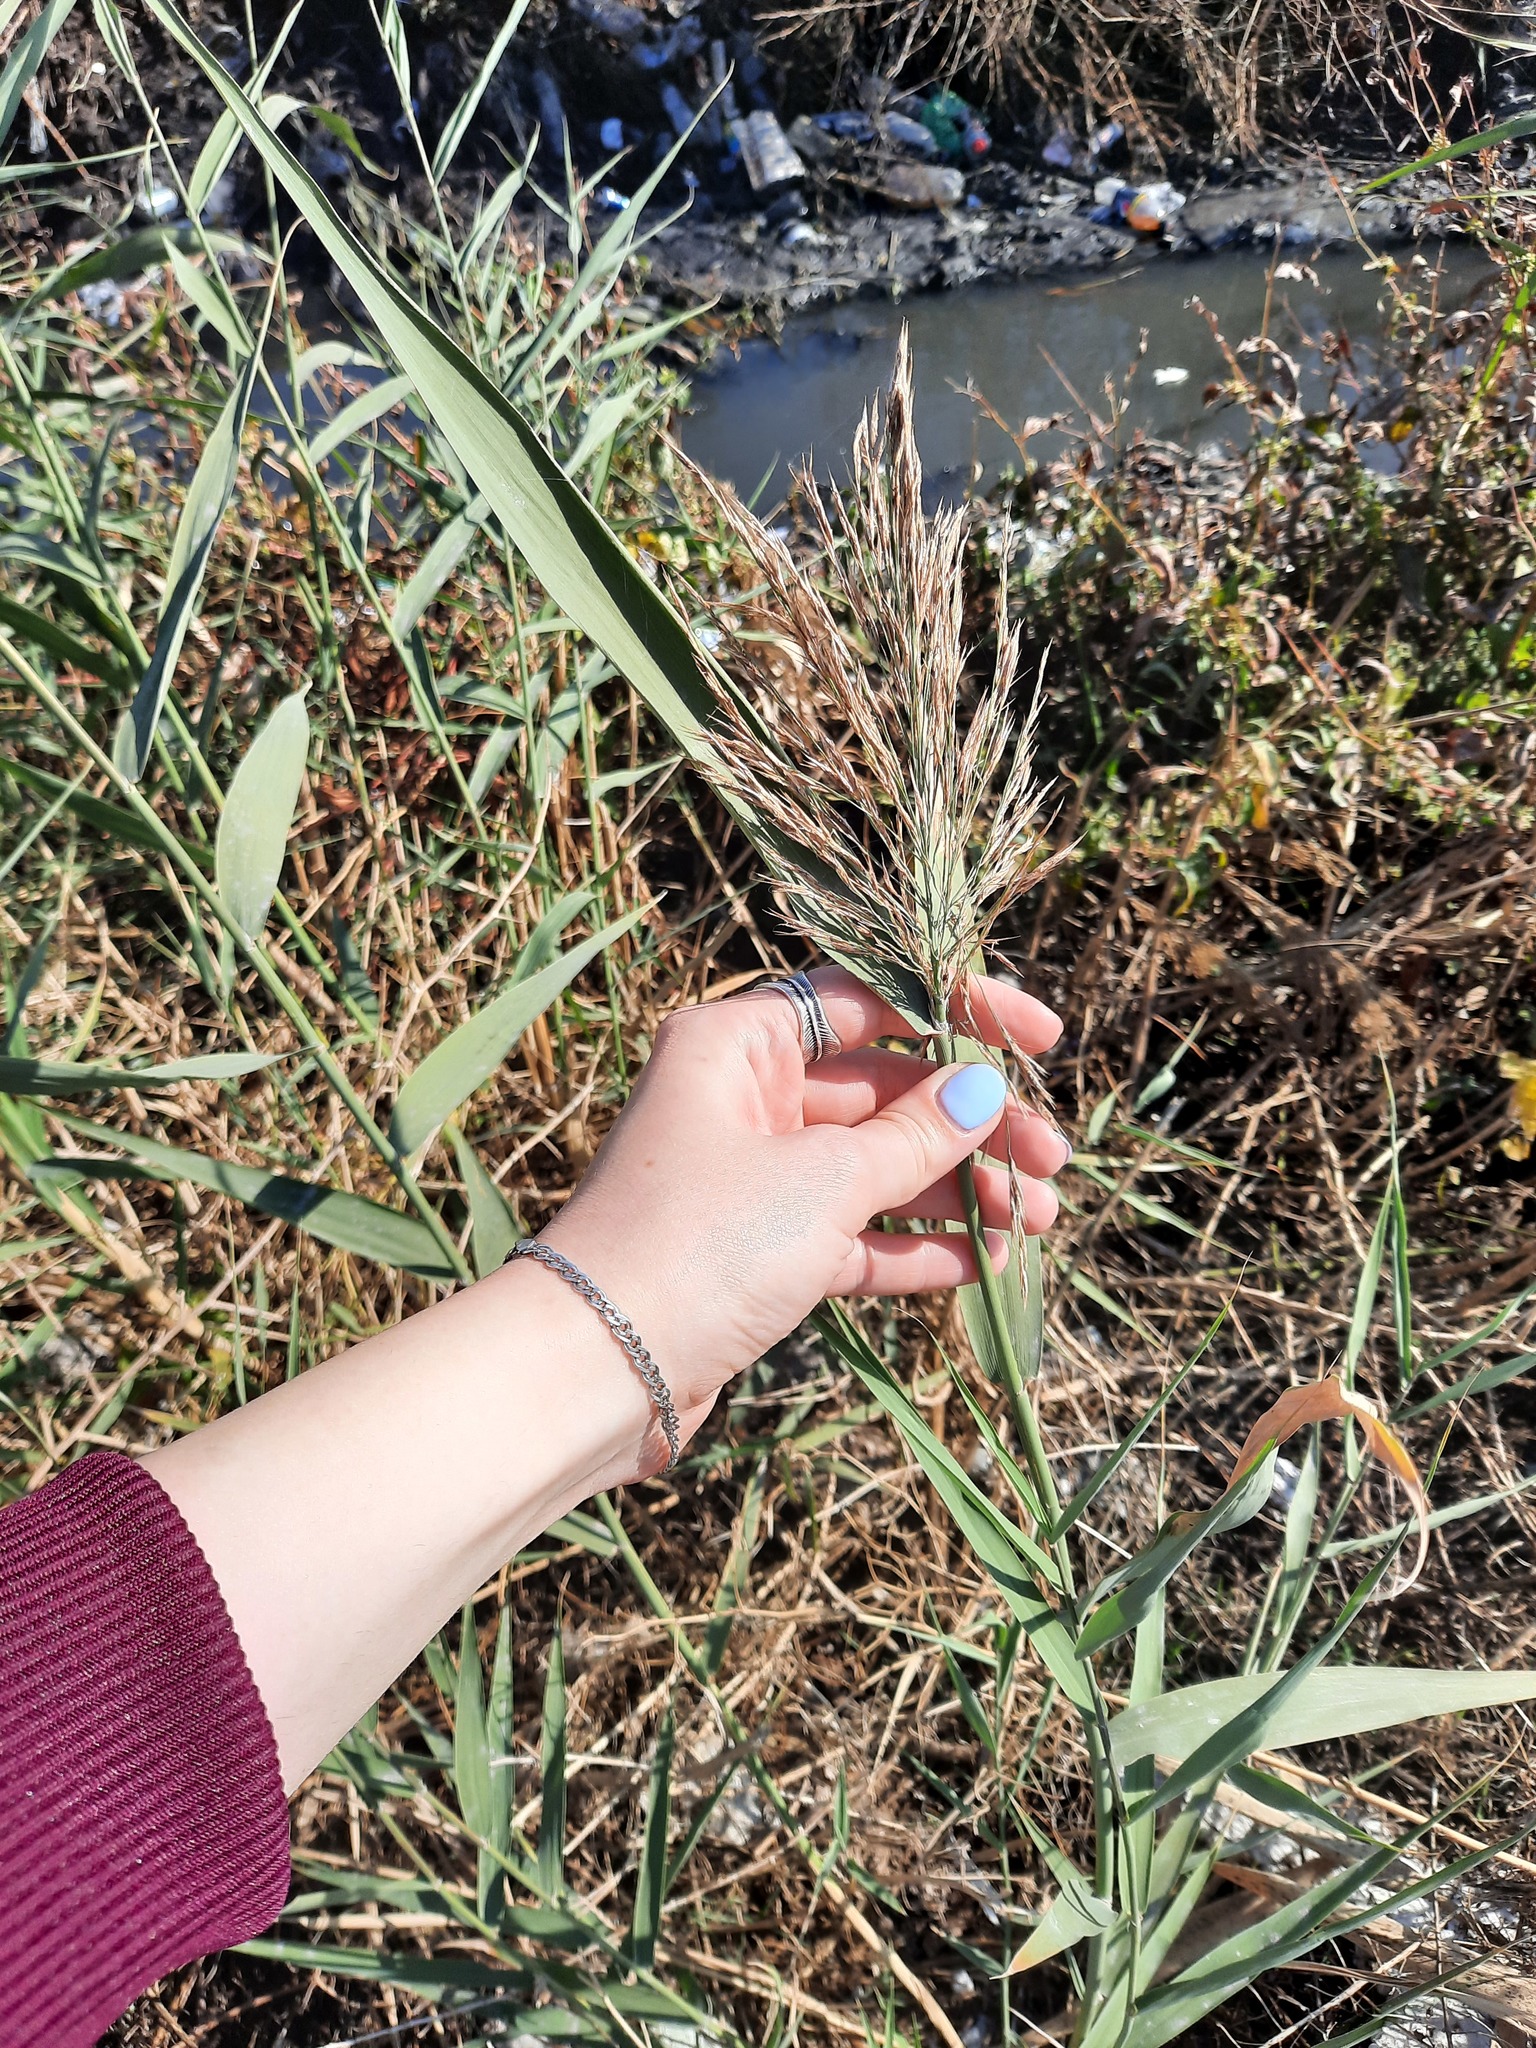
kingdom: Plantae
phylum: Tracheophyta
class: Liliopsida
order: Poales
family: Poaceae
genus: Phragmites
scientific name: Phragmites australis
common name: Common reed
